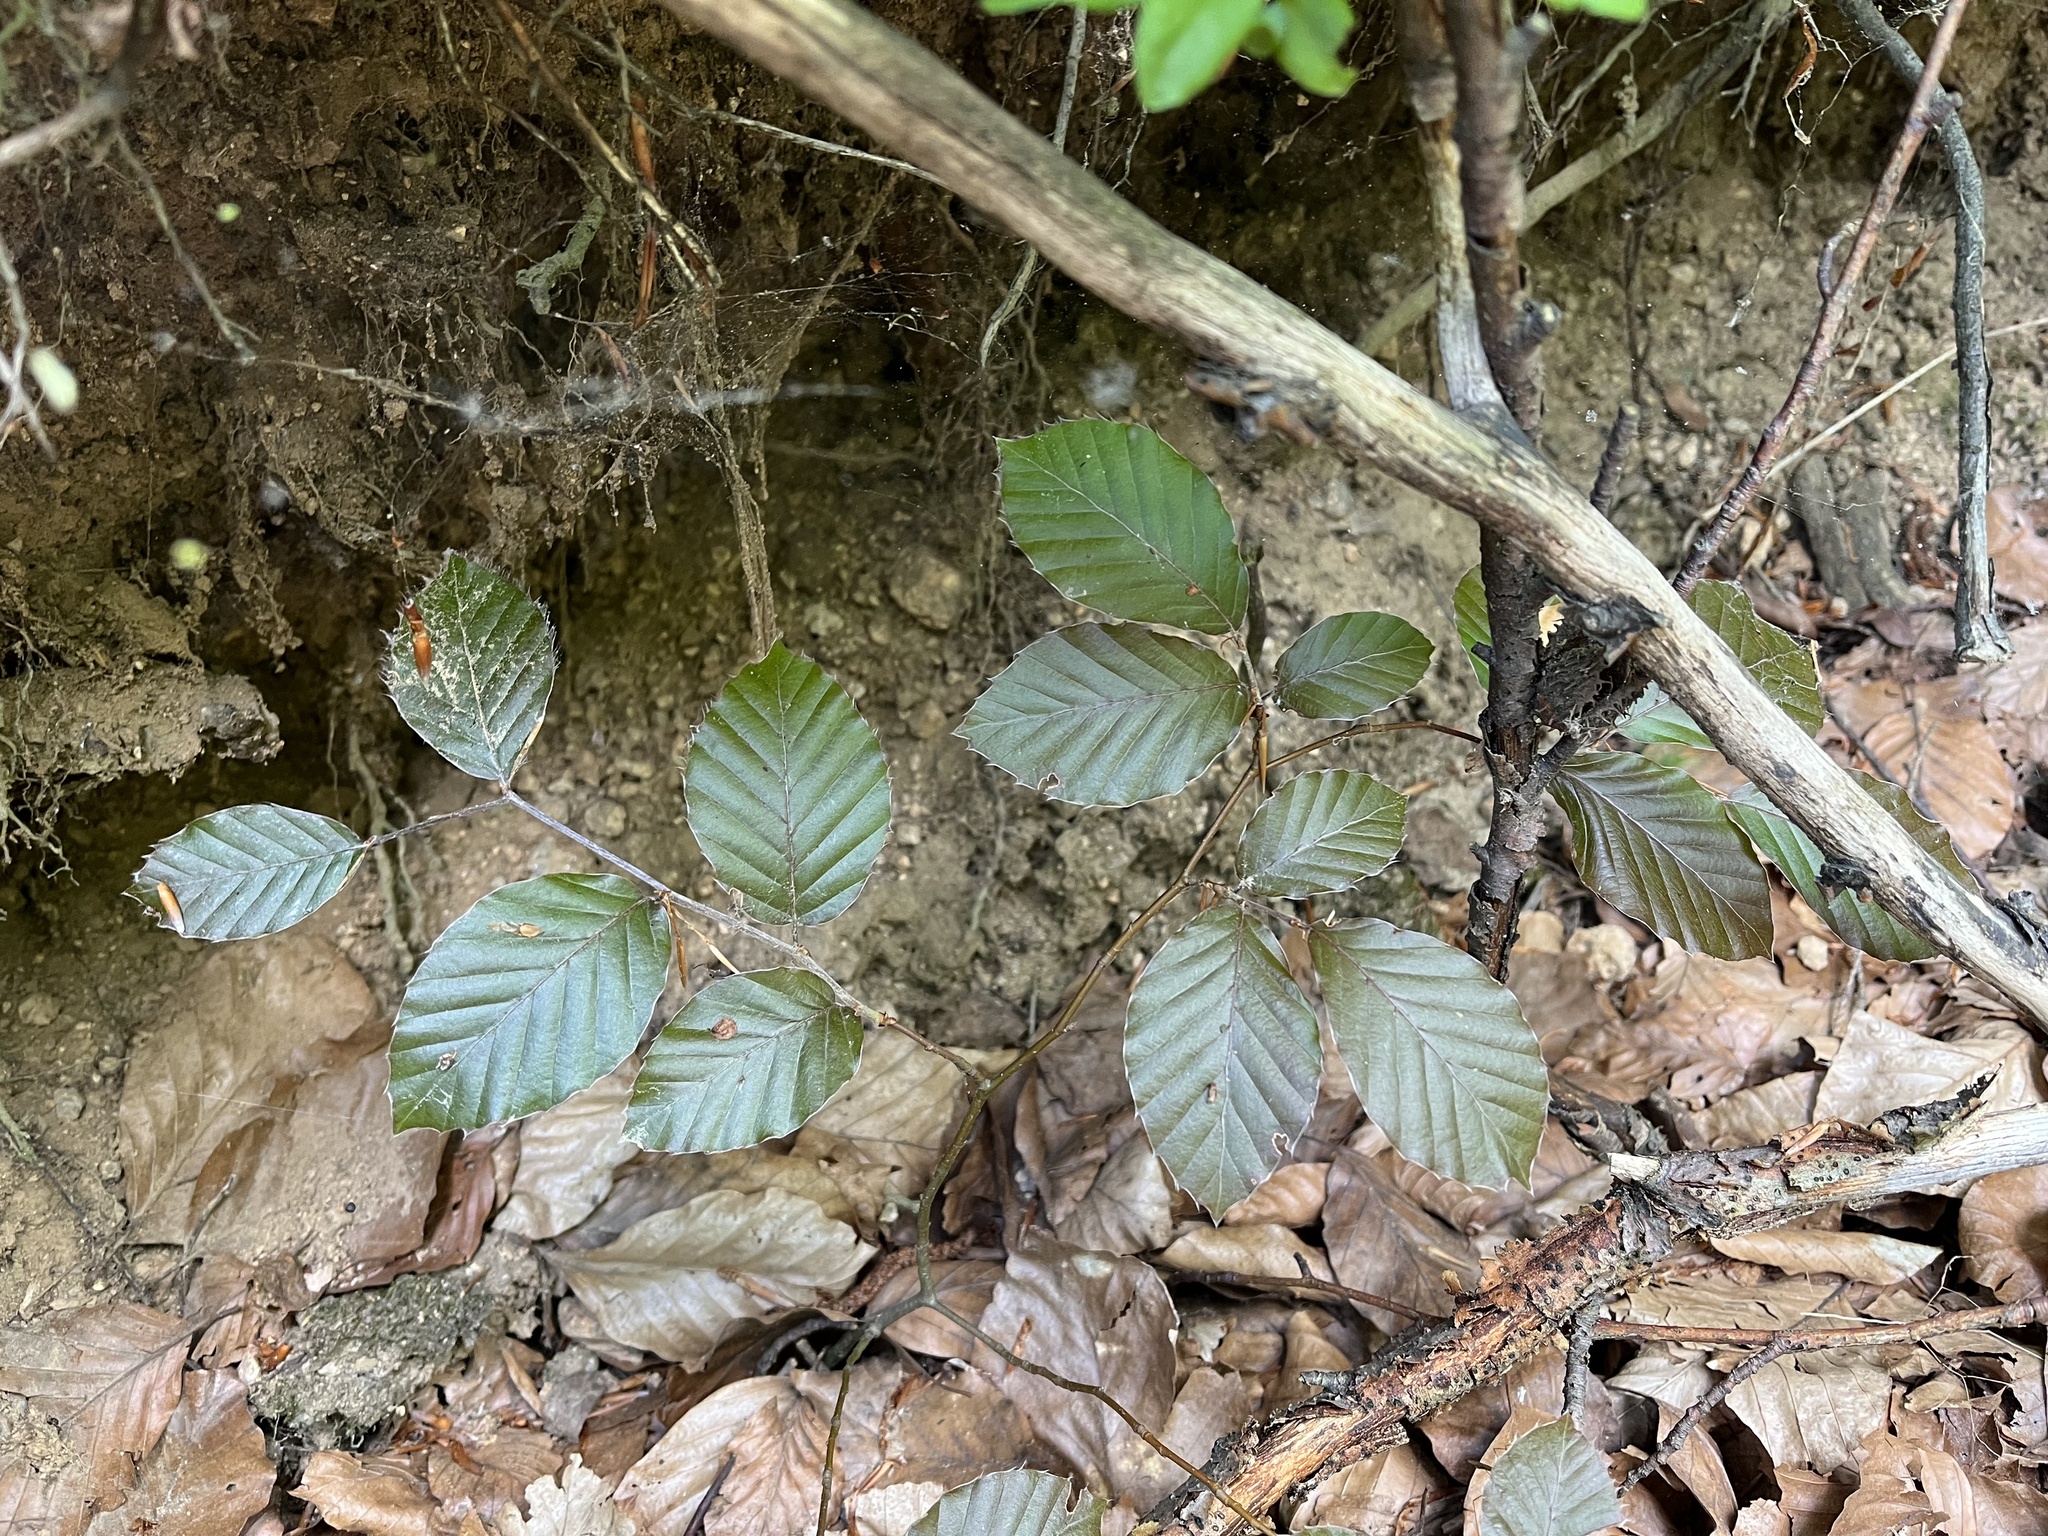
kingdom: Plantae
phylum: Tracheophyta
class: Magnoliopsida
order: Fagales
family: Fagaceae
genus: Fagus
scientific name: Fagus sylvatica
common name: Beech
